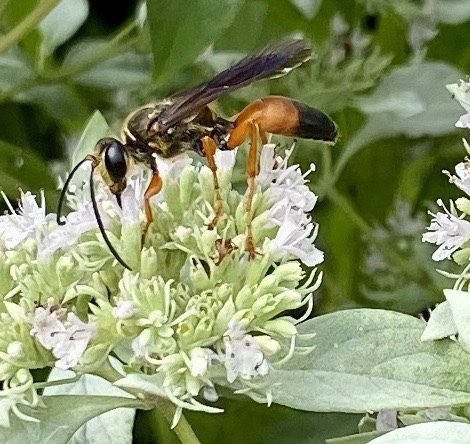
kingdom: Animalia
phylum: Arthropoda
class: Insecta
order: Hymenoptera
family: Sphecidae
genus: Sphex
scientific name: Sphex ichneumoneus
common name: Great golden digger wasp
